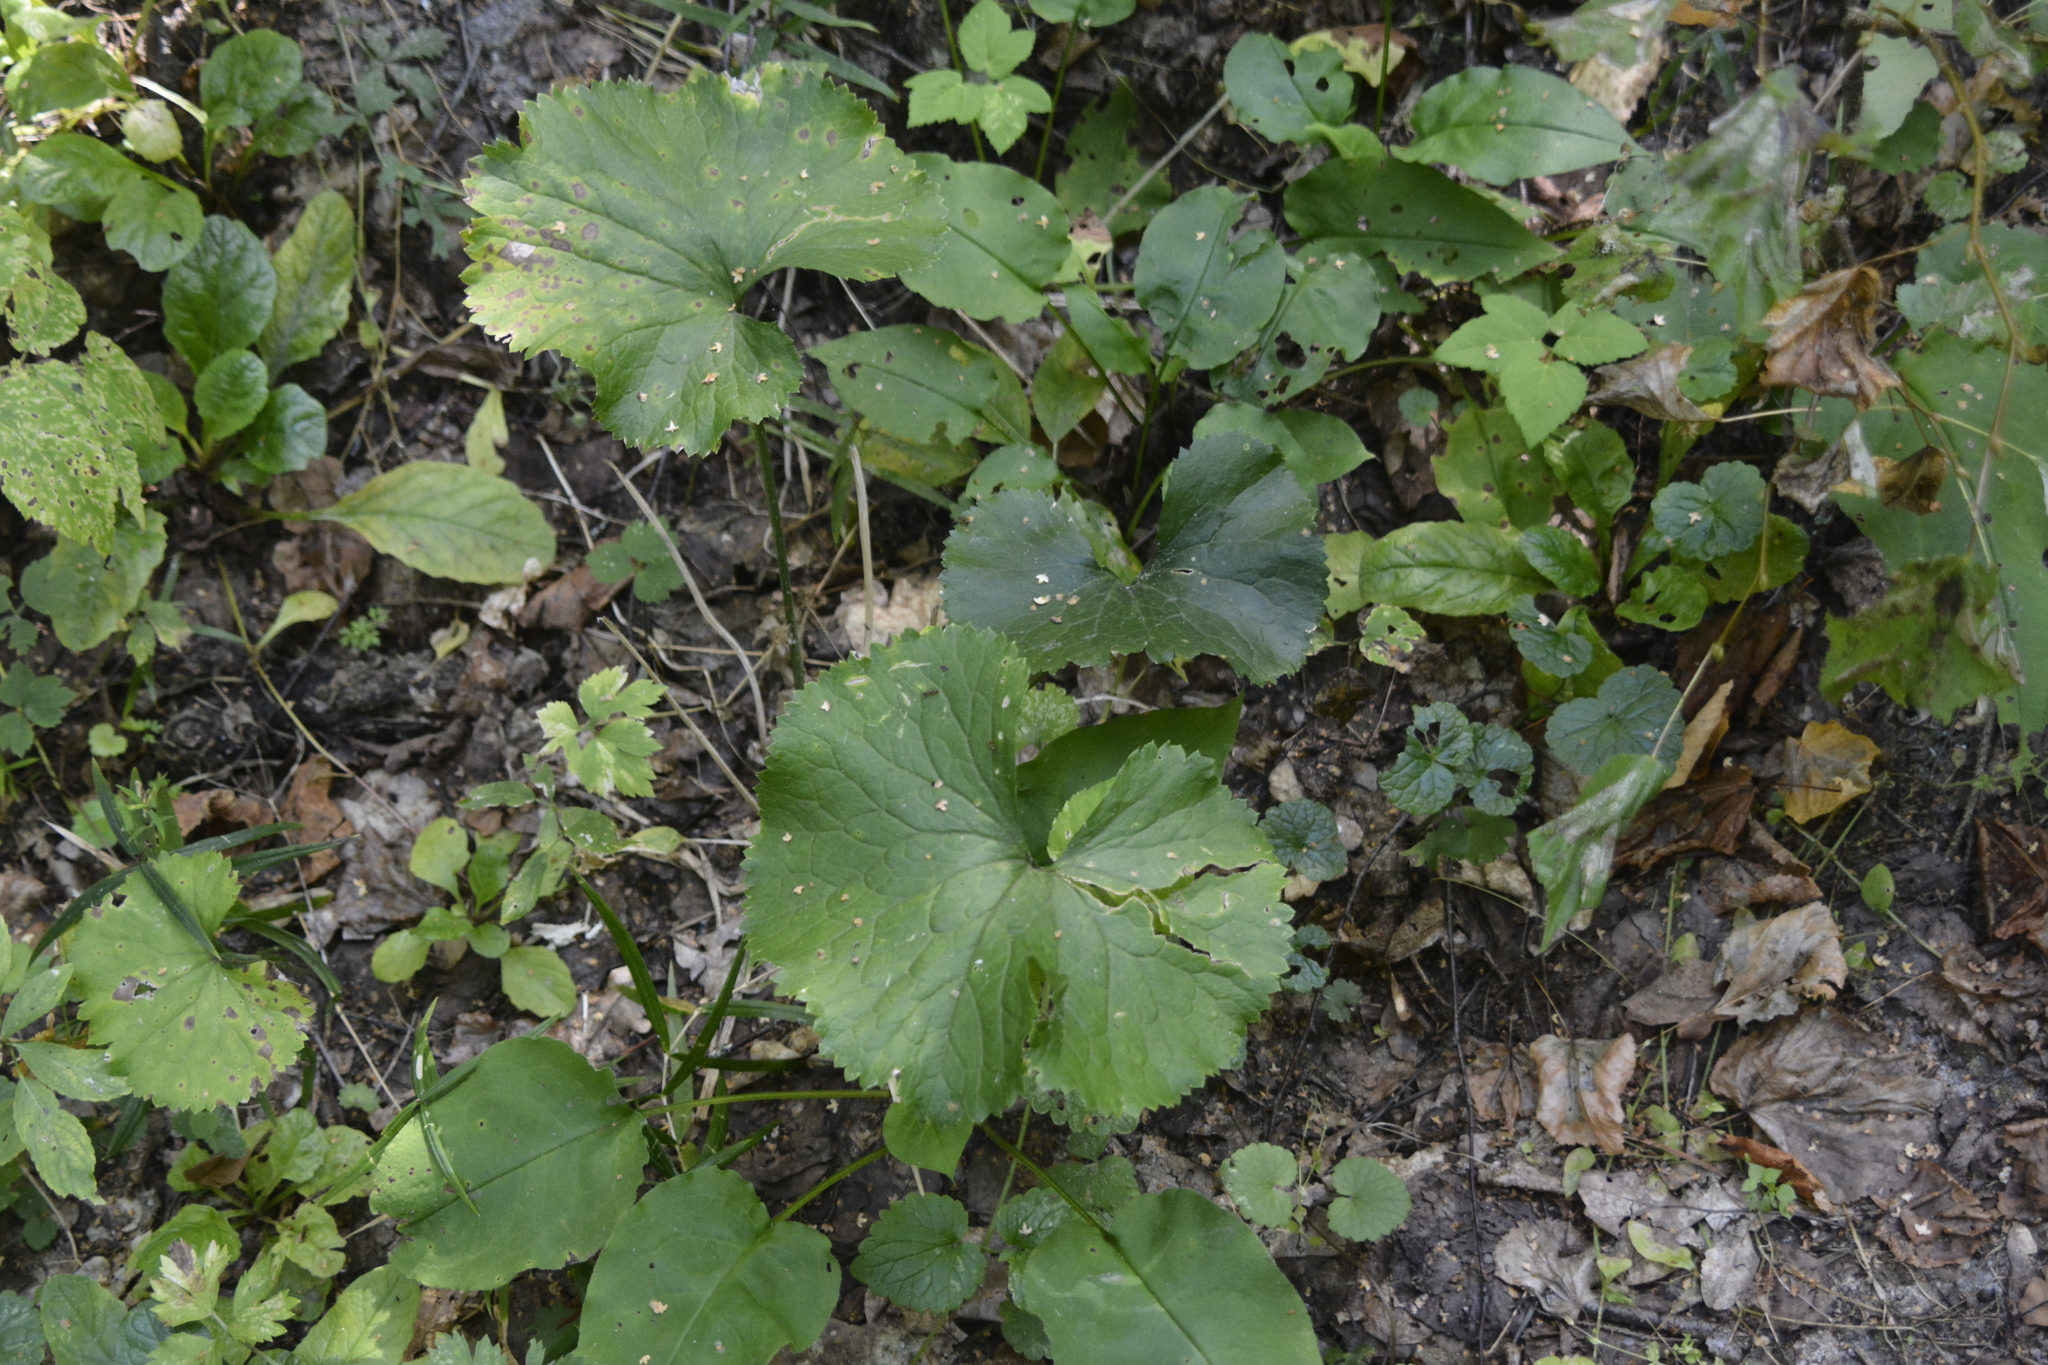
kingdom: Plantae
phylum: Tracheophyta
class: Magnoliopsida
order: Ranunculales
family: Ranunculaceae
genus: Ranunculus
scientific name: Ranunculus cassubicus
